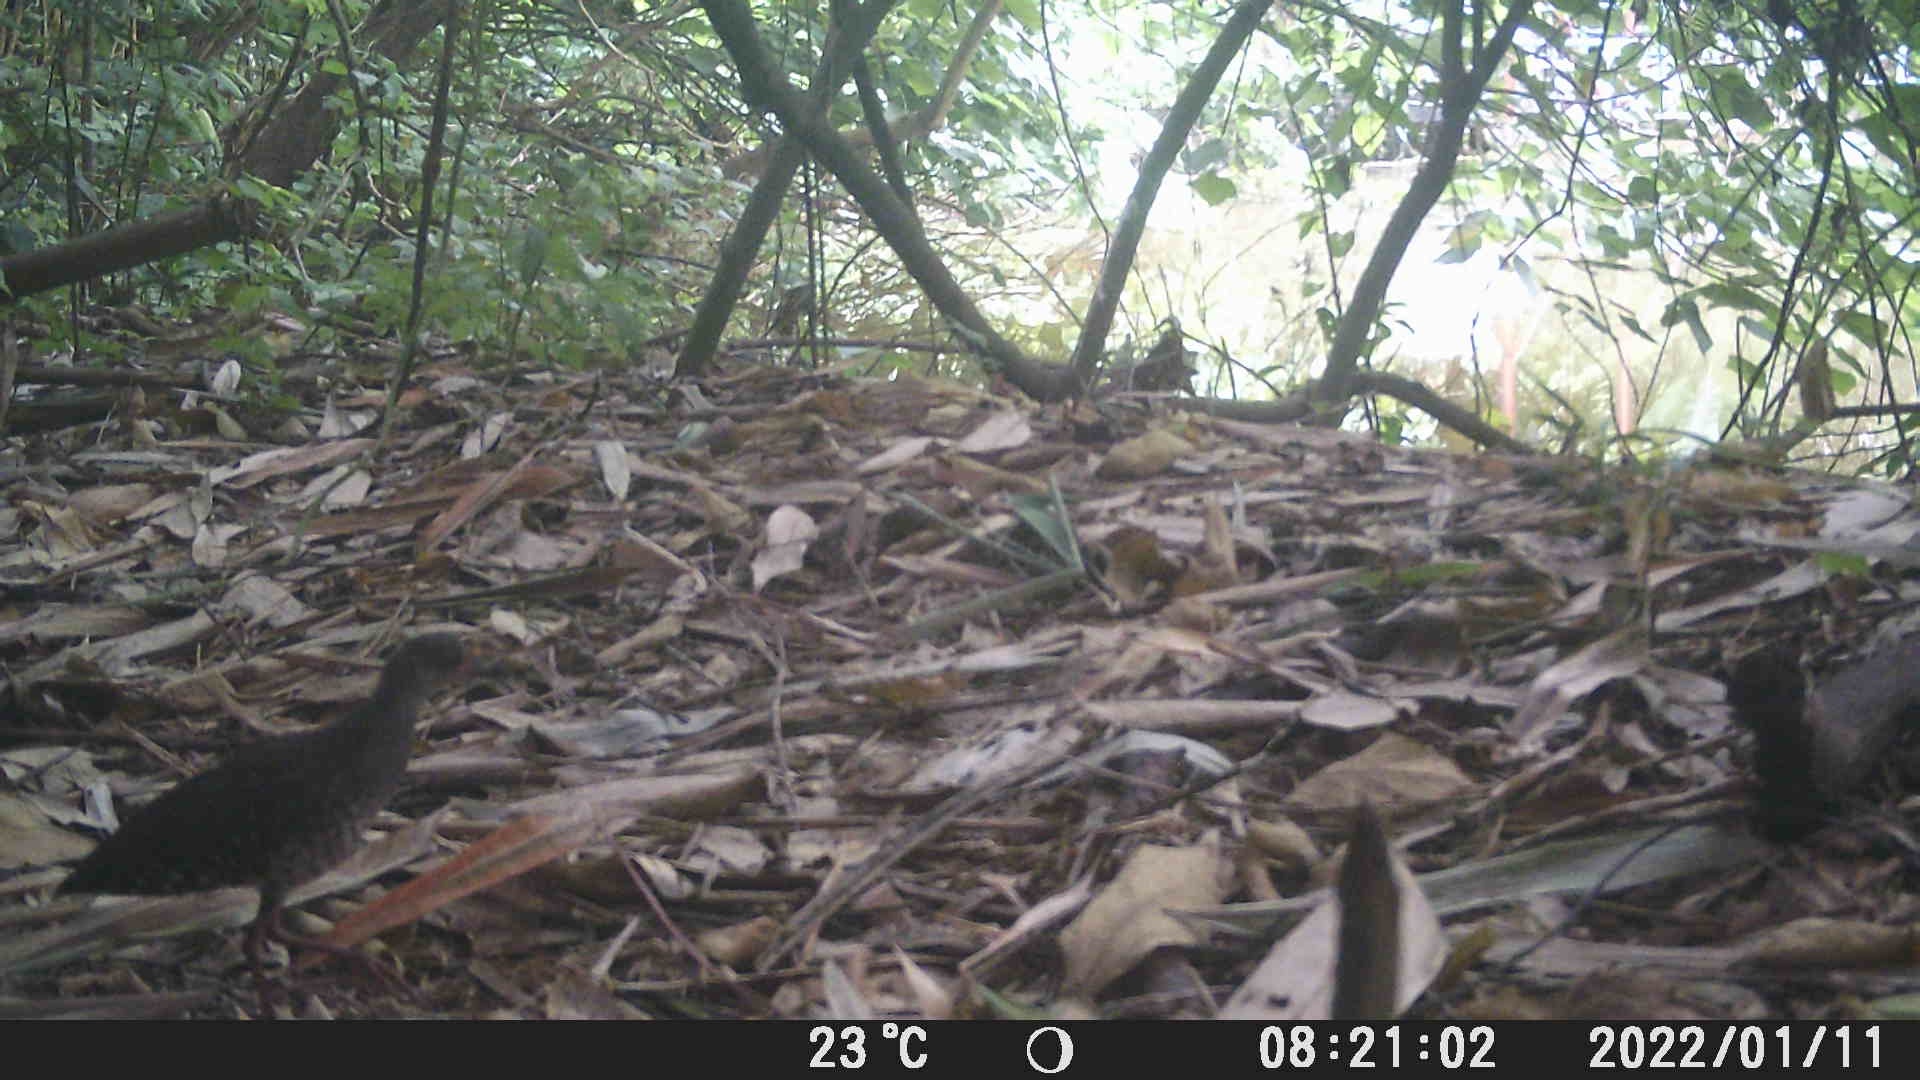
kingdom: Animalia
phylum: Chordata
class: Aves
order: Gruiformes
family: Rallidae
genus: Rallina
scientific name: Rallina fasciata
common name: Red-legged crake
